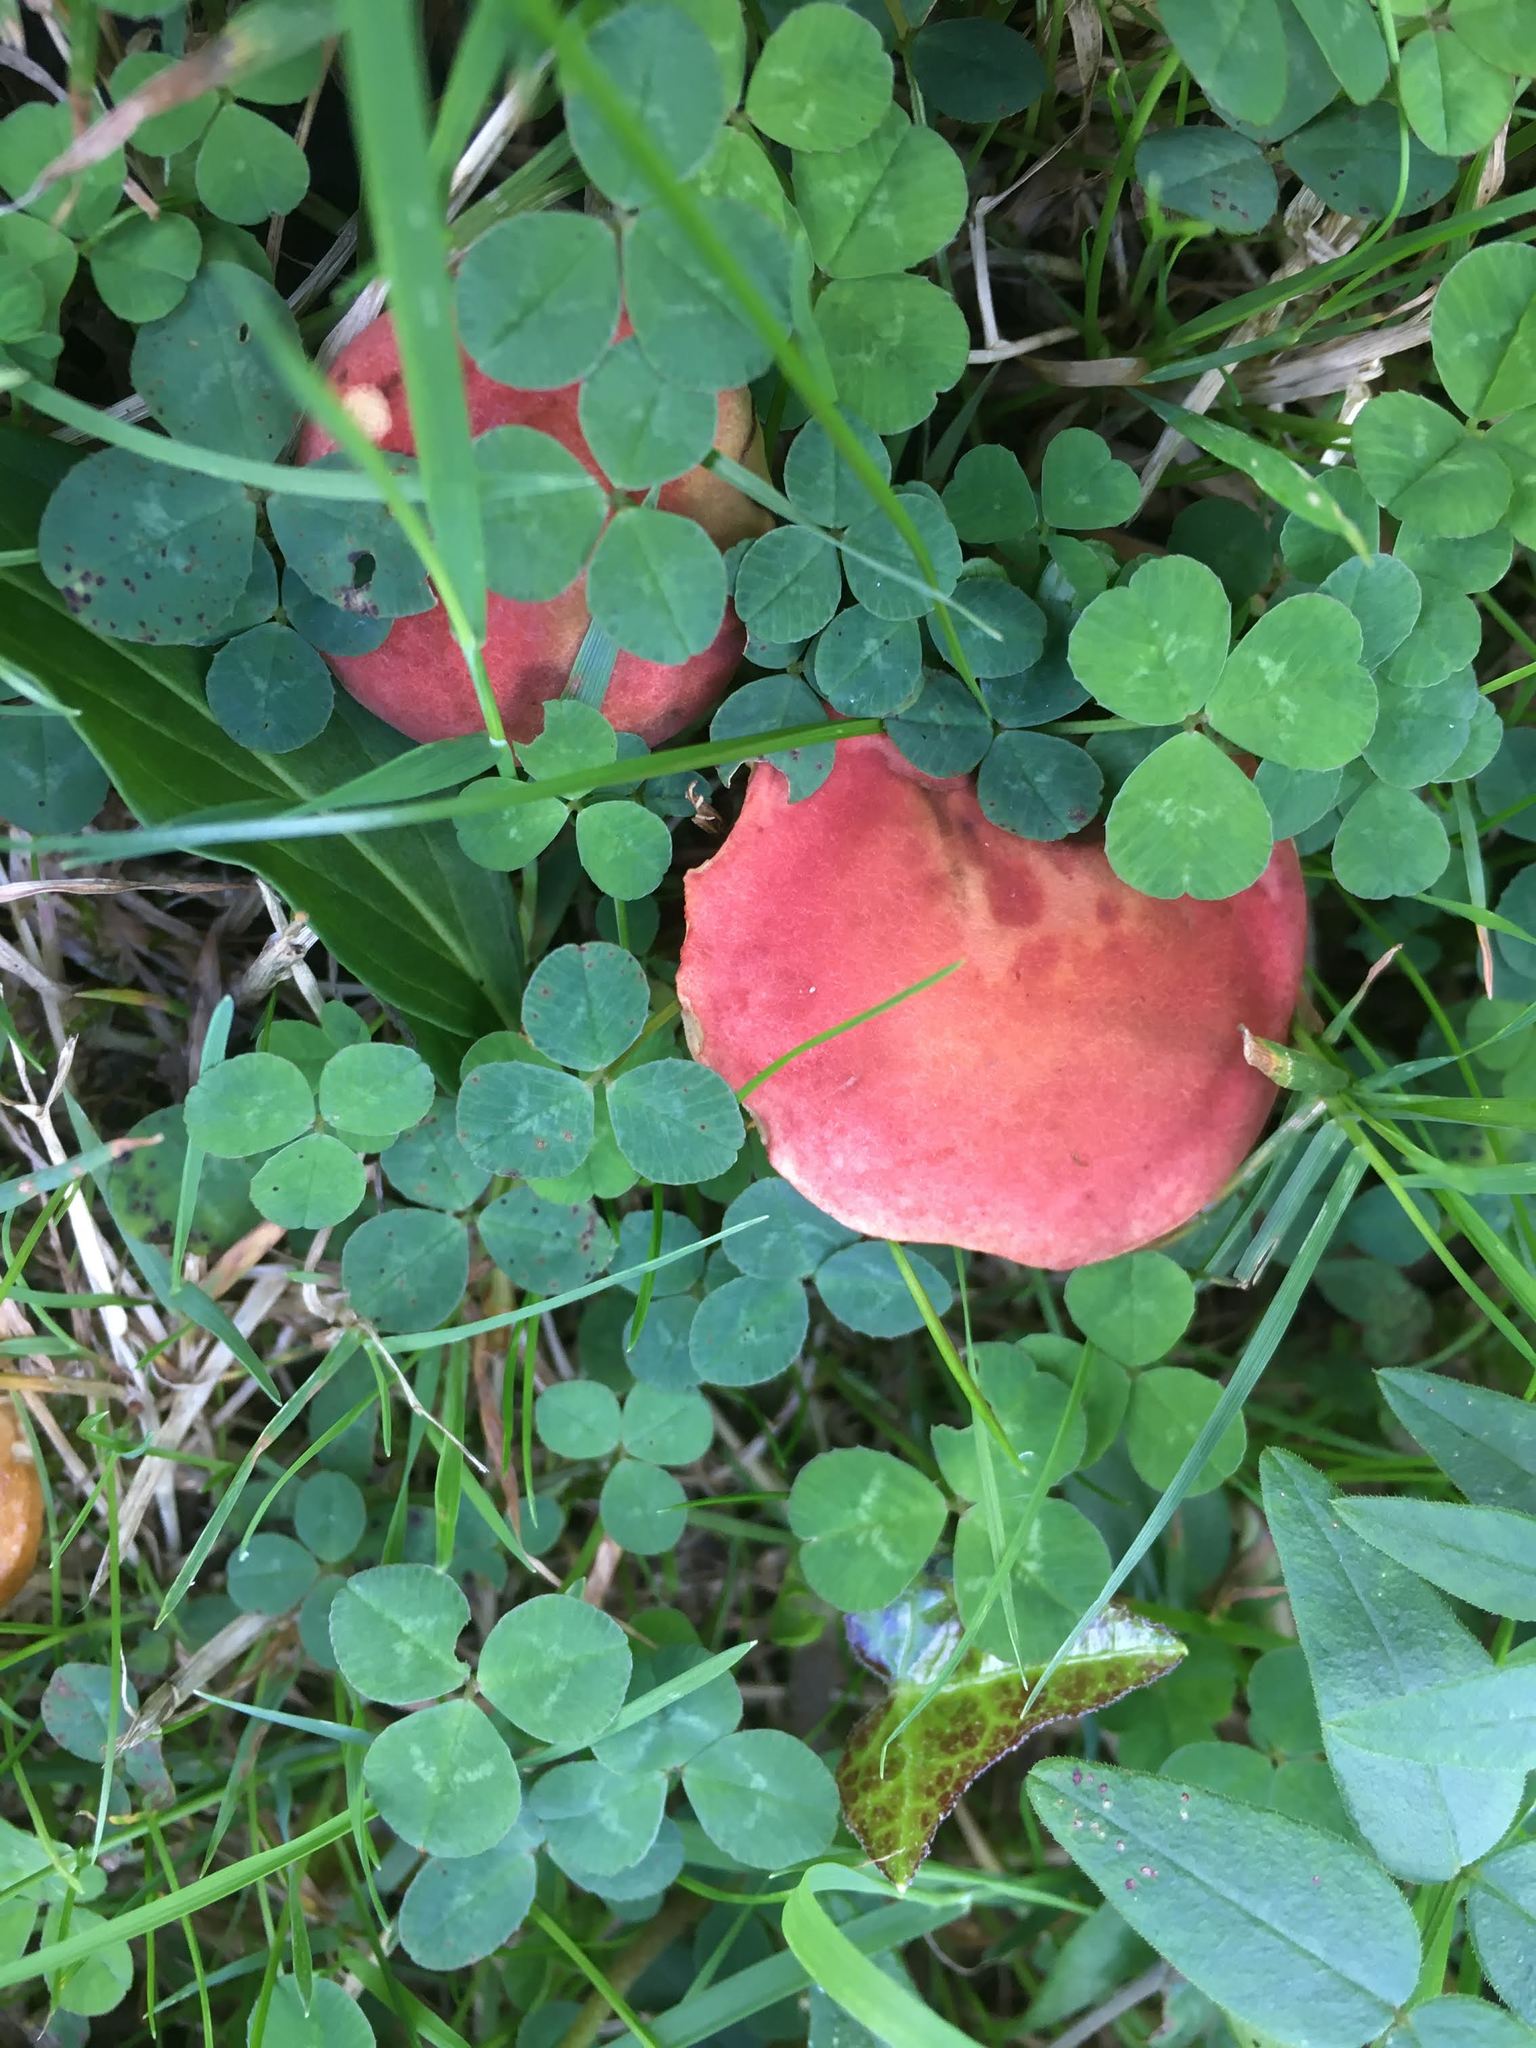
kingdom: Fungi
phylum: Basidiomycota
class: Agaricomycetes
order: Boletales
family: Boletaceae
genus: Hortiboletus
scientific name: Hortiboletus rubellus
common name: Ruby bolete
